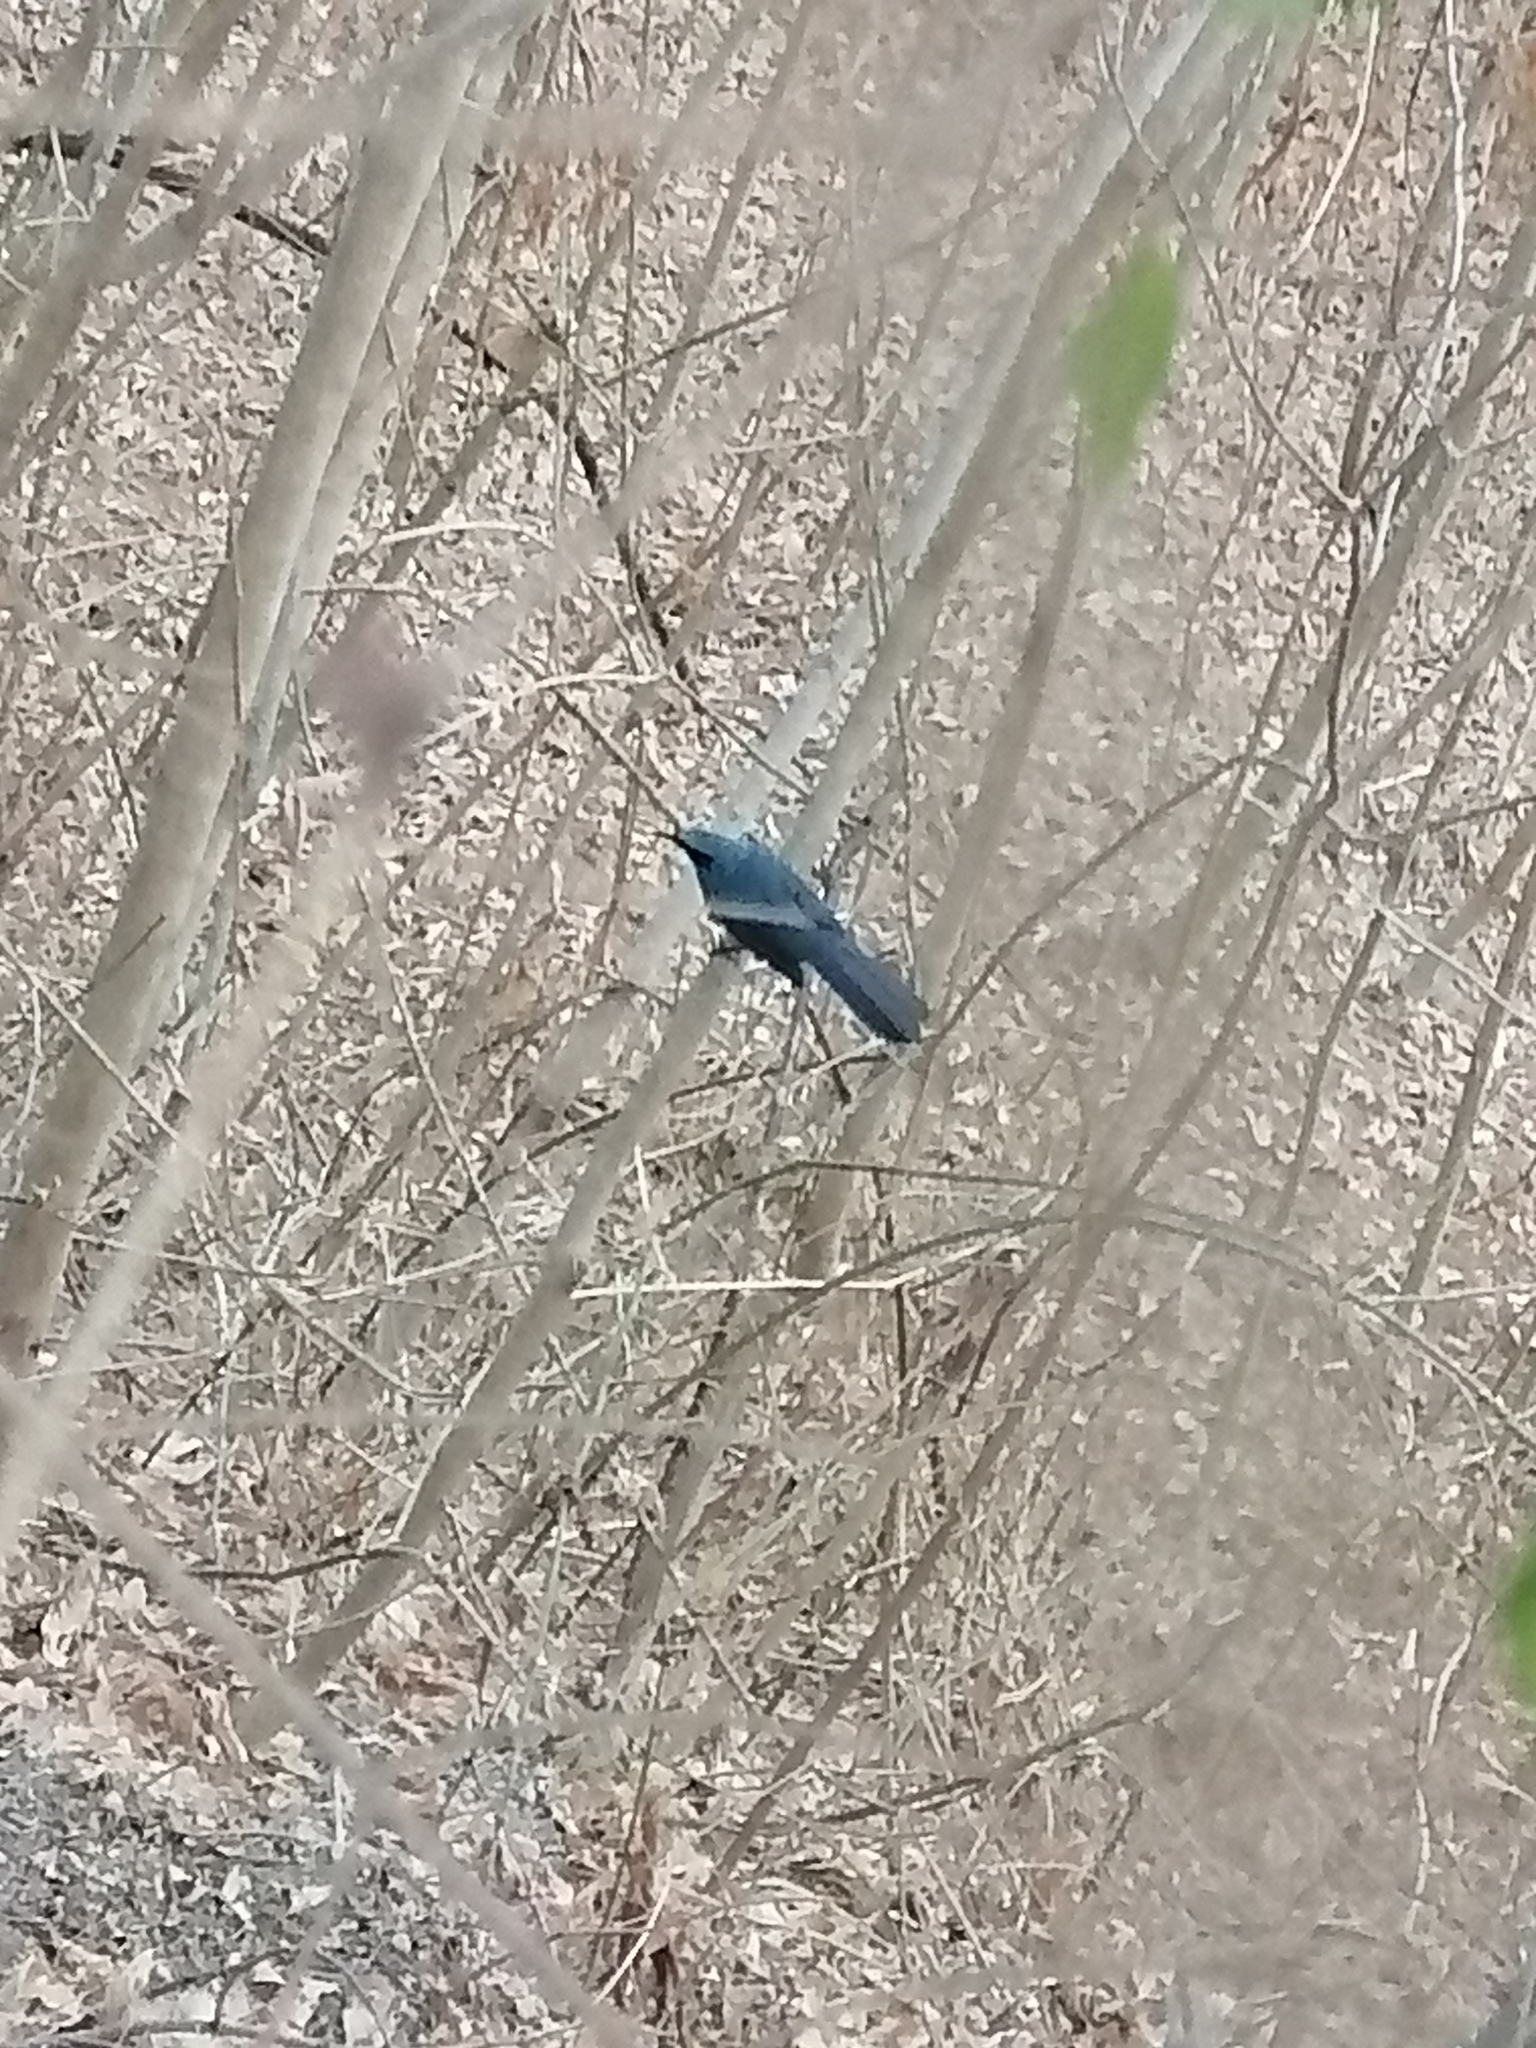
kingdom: Animalia
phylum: Chordata
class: Aves
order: Passeriformes
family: Mimidae
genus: Melanotis
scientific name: Melanotis caerulescens
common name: Blue mockingbird
